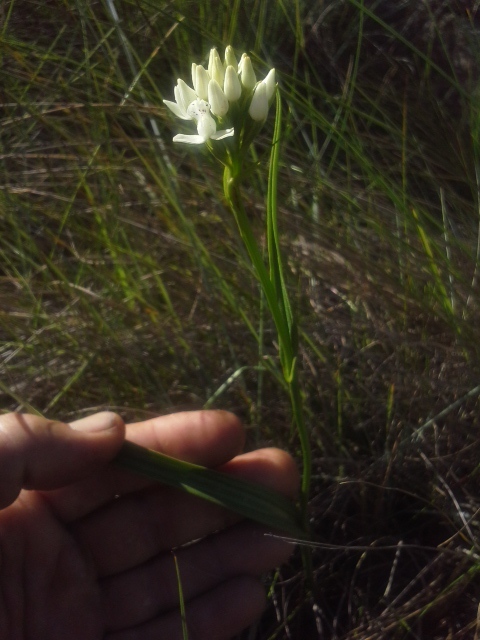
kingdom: Plantae
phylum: Tracheophyta
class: Liliopsida
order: Asparagales
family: Orchidaceae
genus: Brownleea
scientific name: Brownleea galpinii
